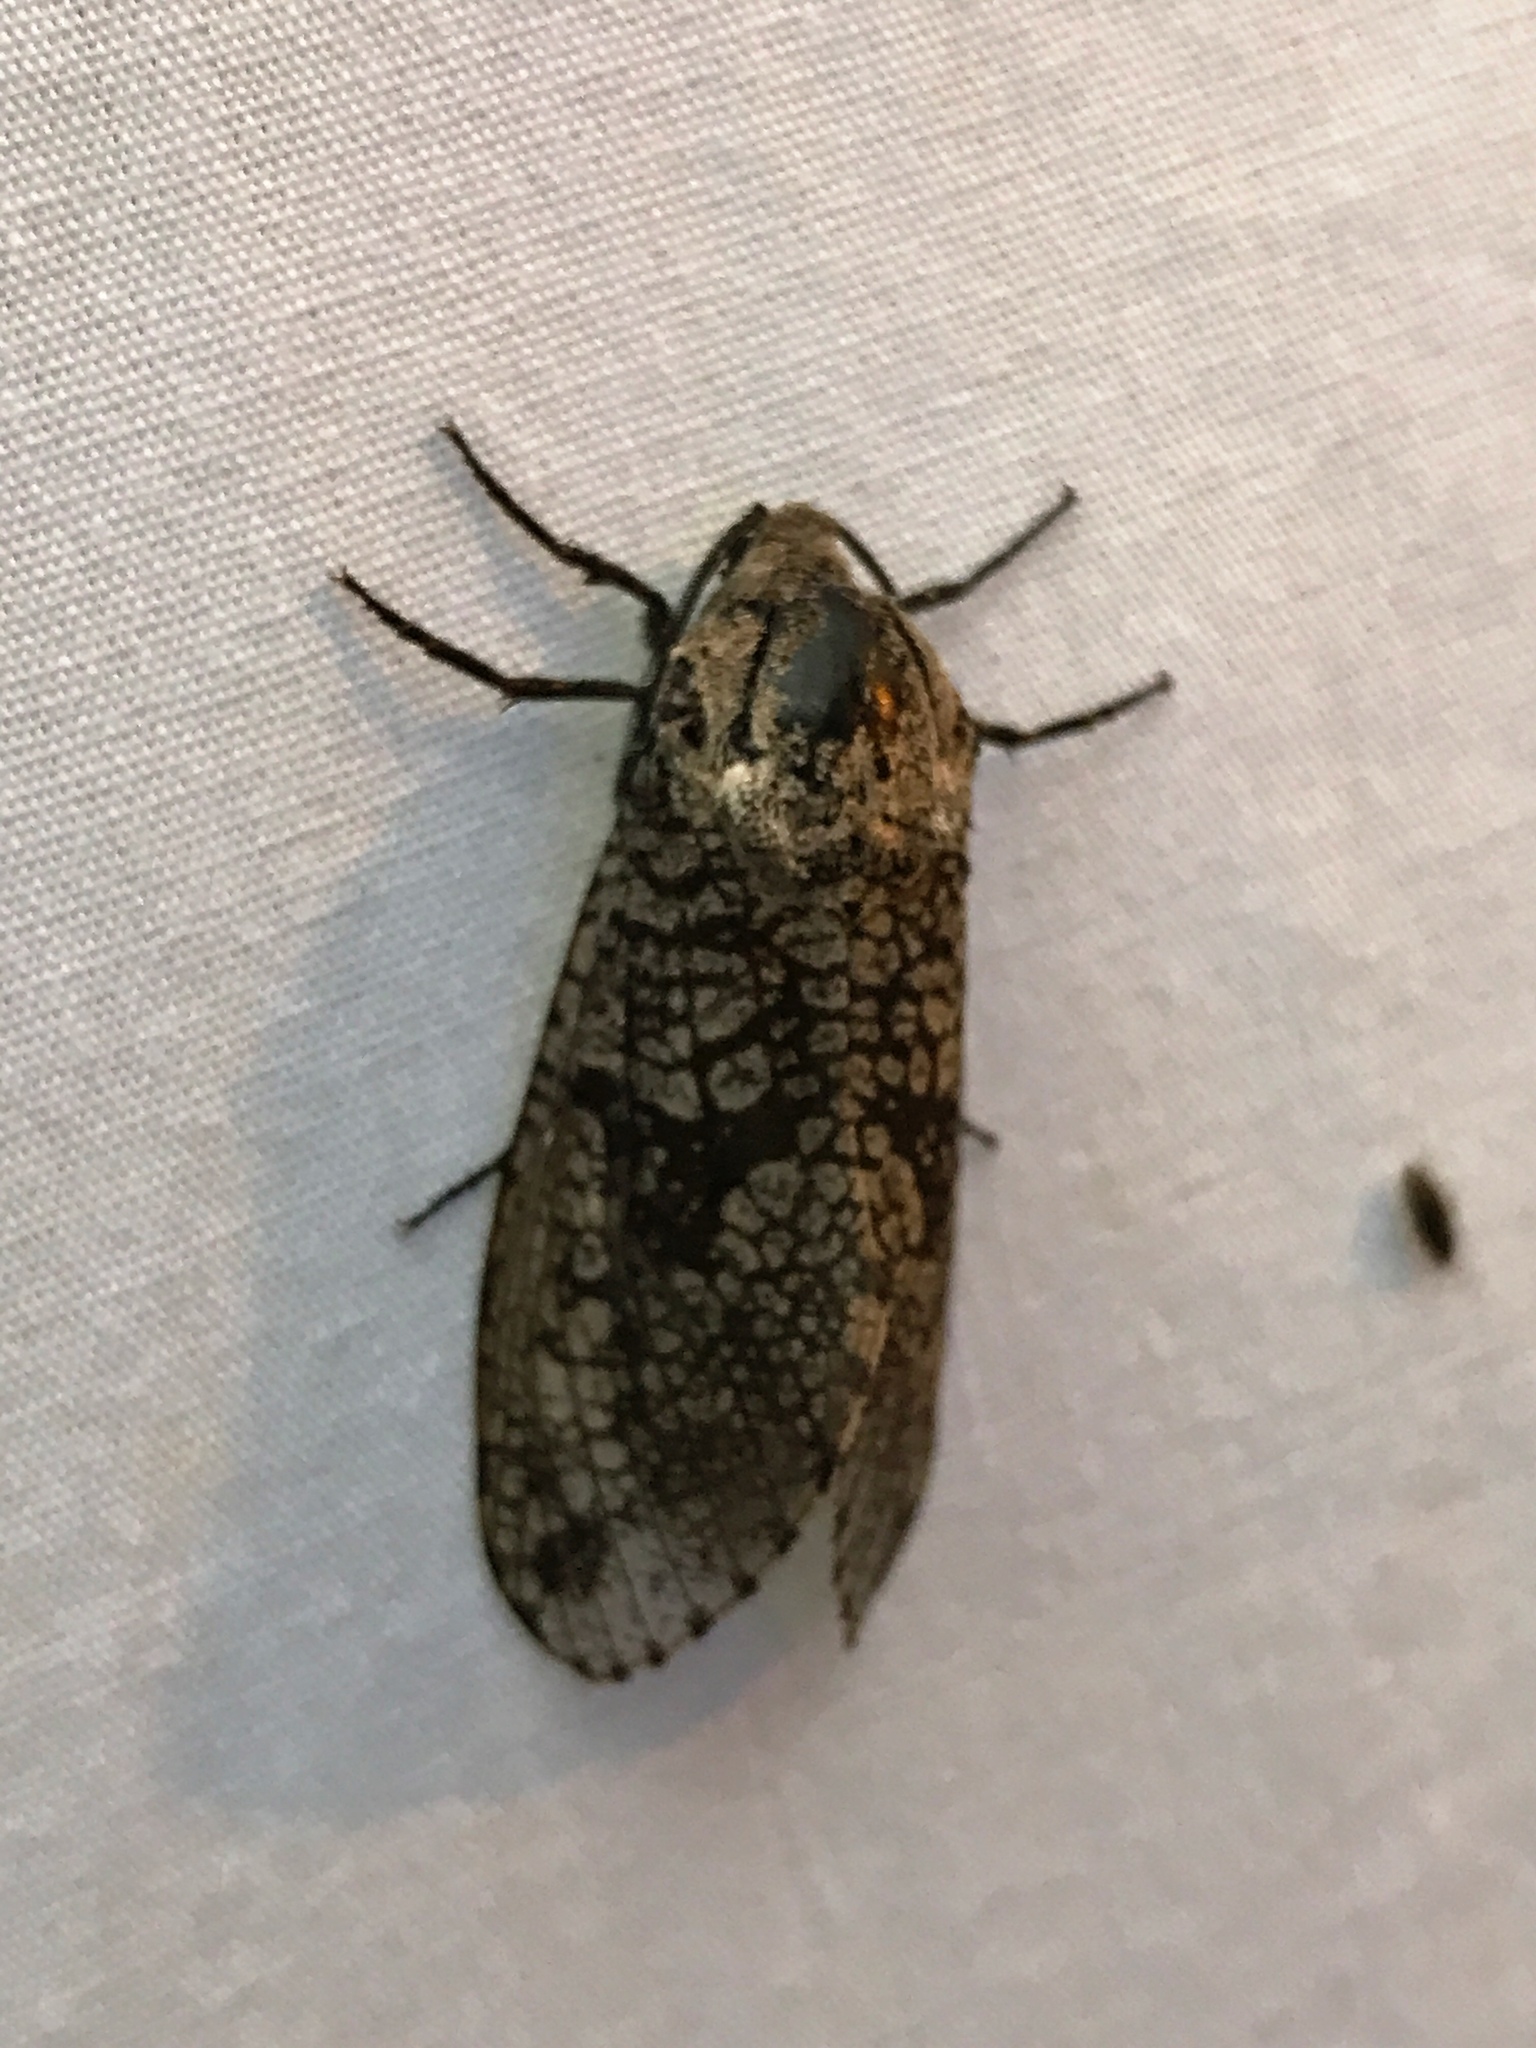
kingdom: Animalia
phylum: Arthropoda
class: Insecta
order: Lepidoptera
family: Cossidae
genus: Prionoxystus
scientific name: Prionoxystus robiniae
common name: Carpenterworm
